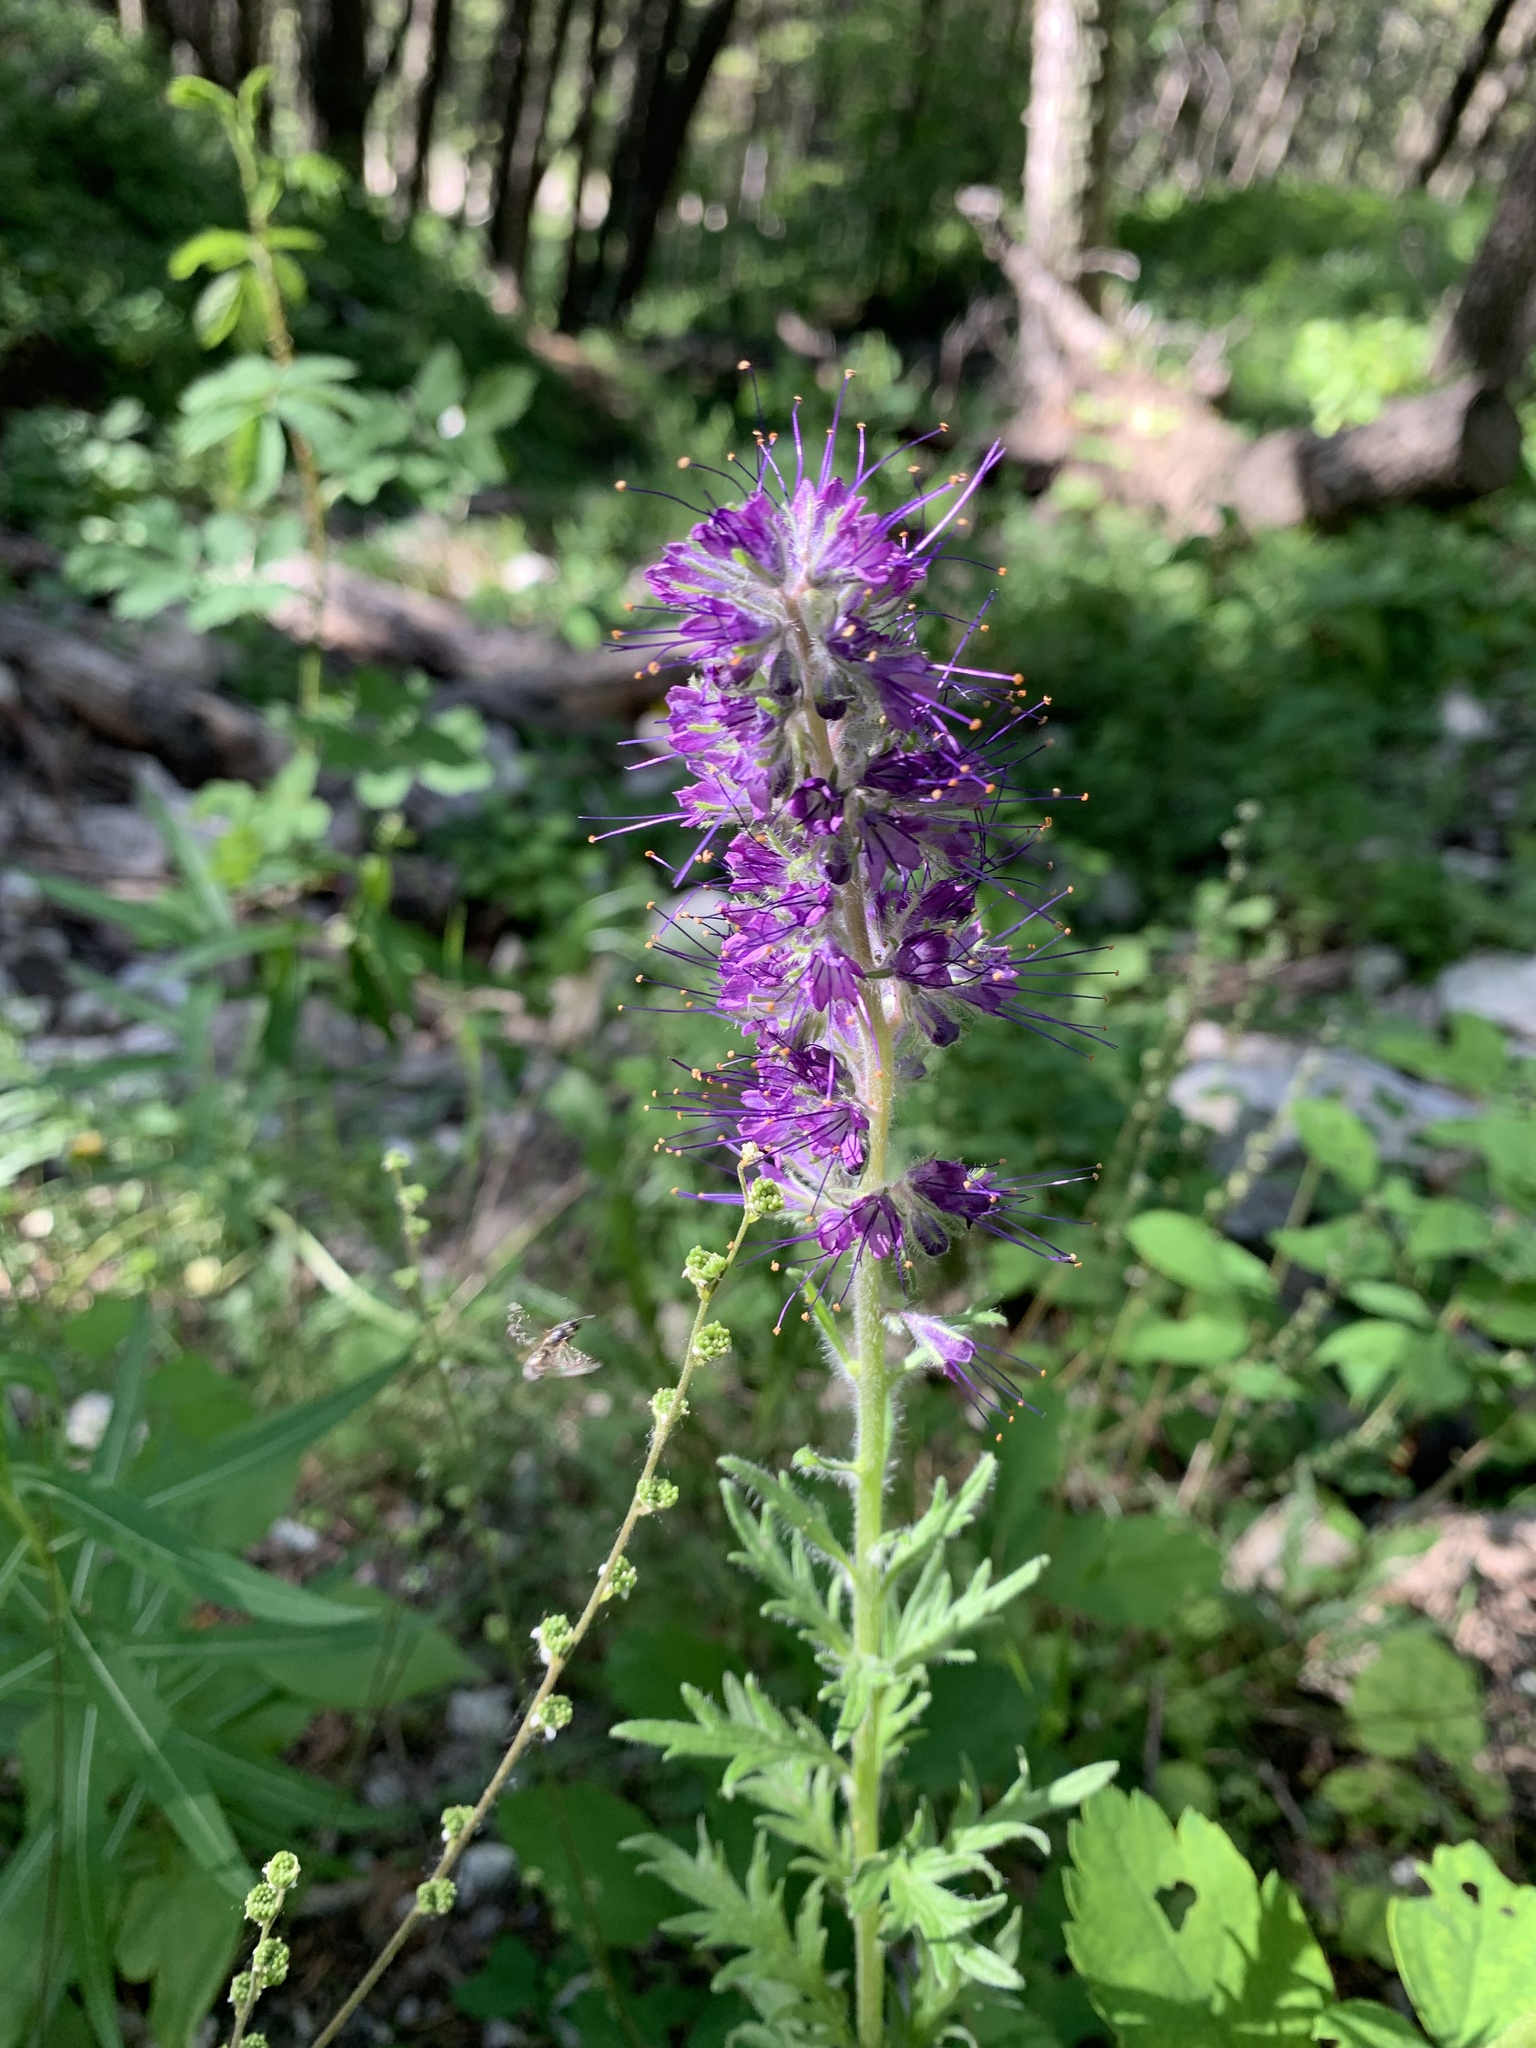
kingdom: Plantae
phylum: Tracheophyta
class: Magnoliopsida
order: Boraginales
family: Hydrophyllaceae
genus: Phacelia
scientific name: Phacelia sericea
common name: Silky phacelia
